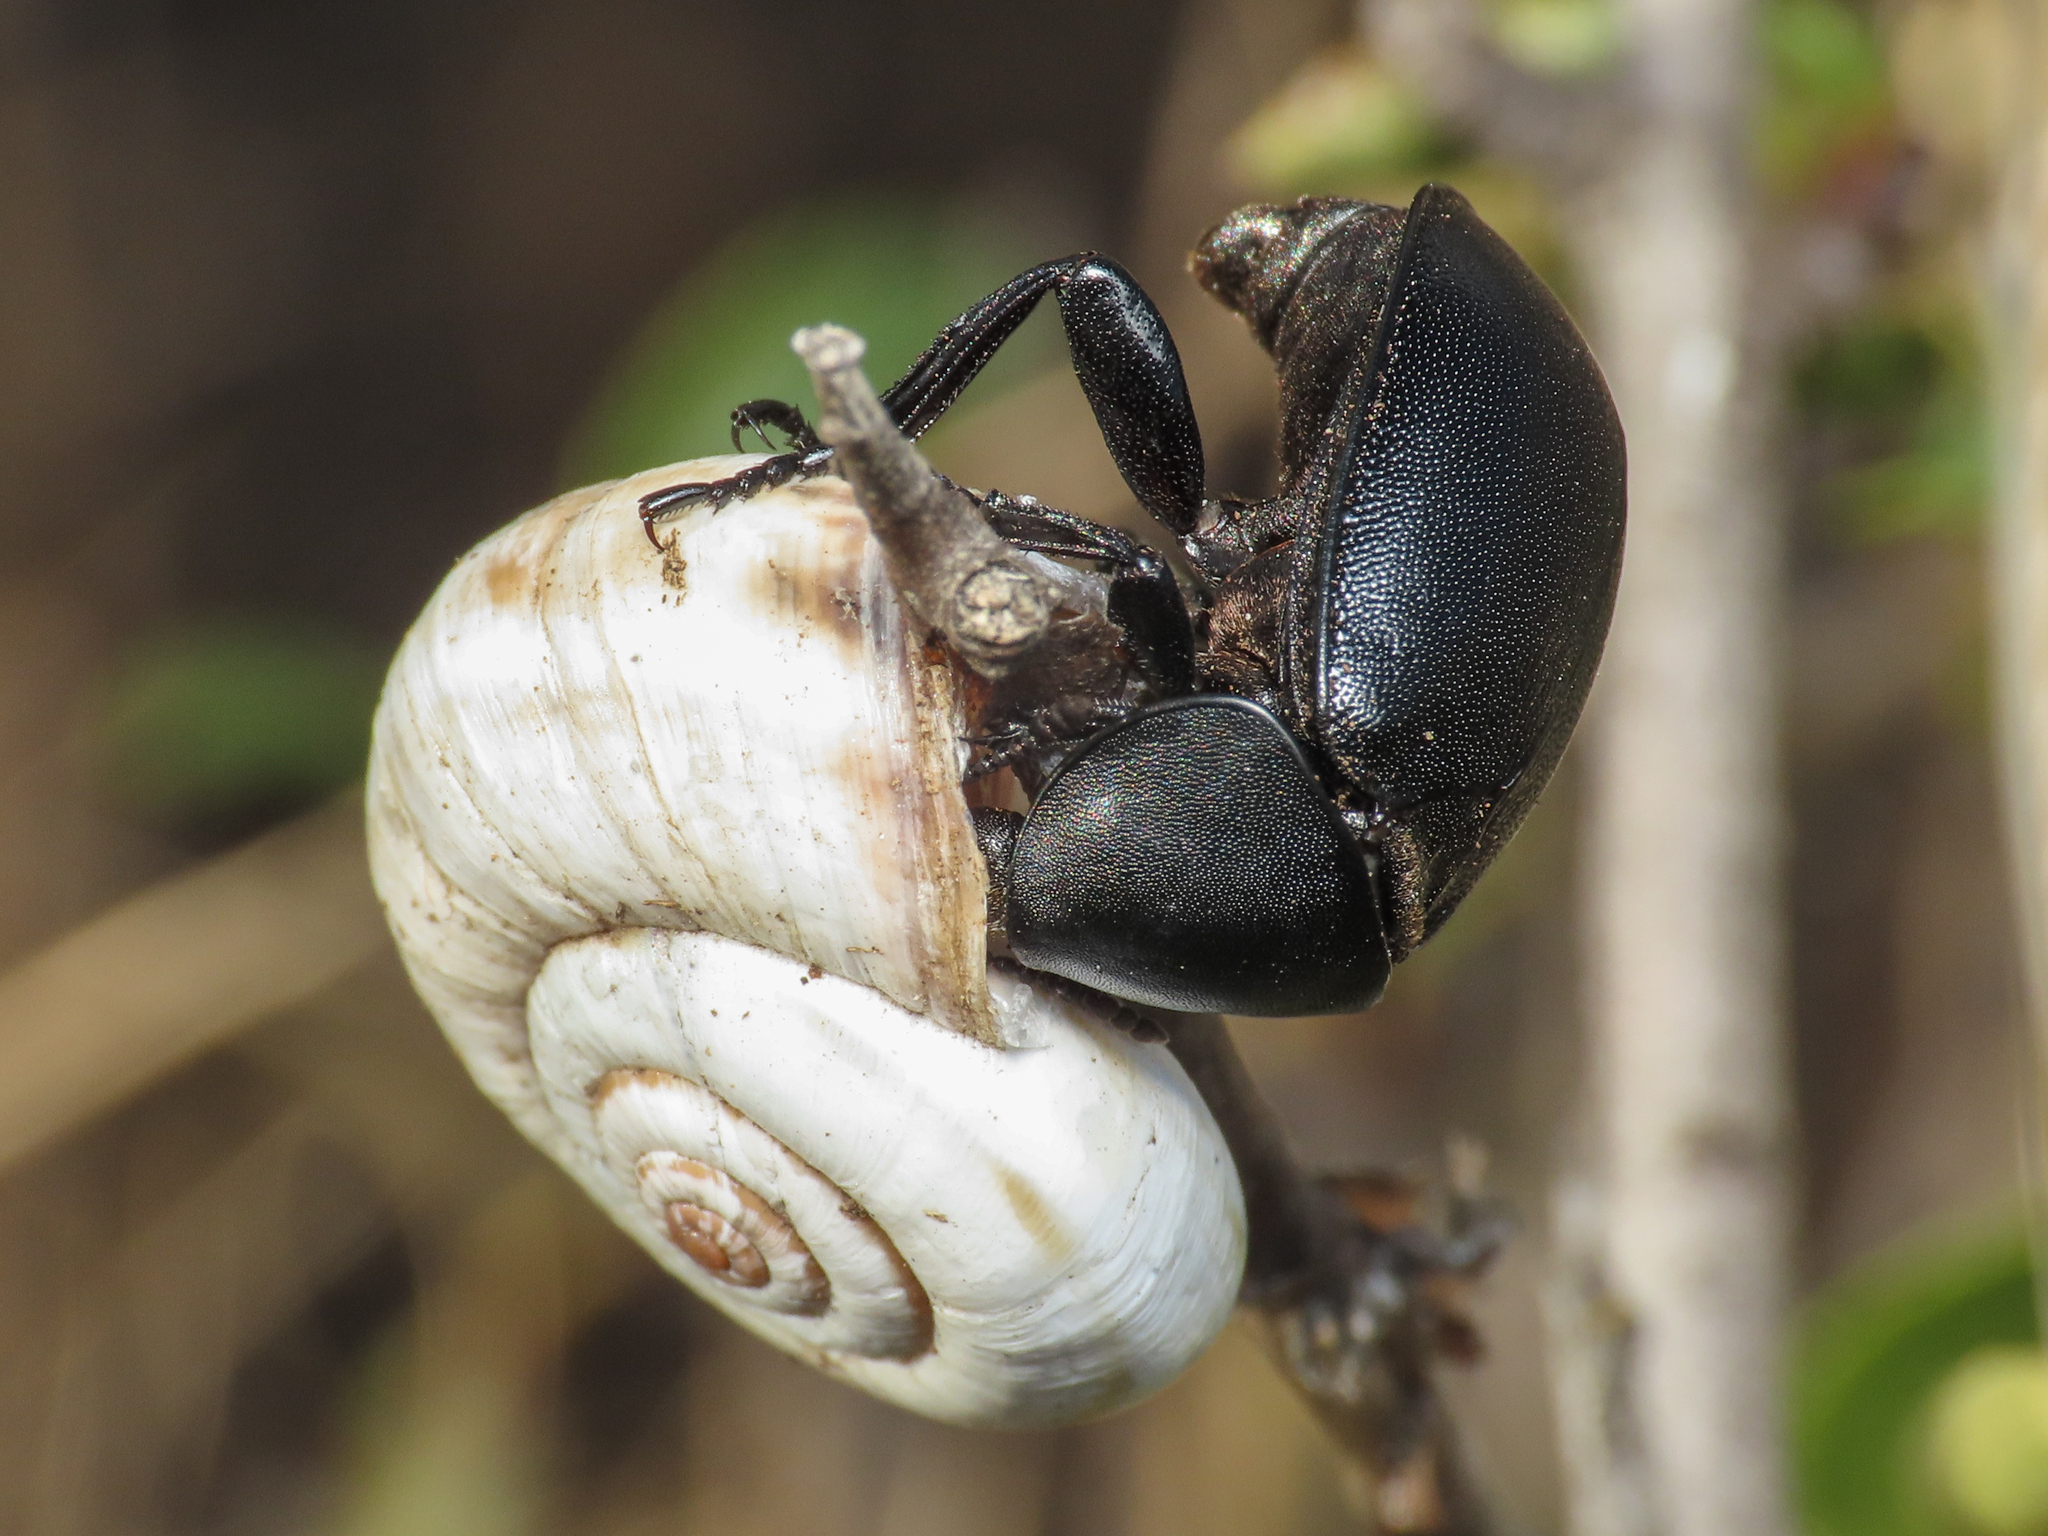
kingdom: Animalia
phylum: Arthropoda
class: Insecta
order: Coleoptera
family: Staphylinidae
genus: Silpha
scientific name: Silpha laevigata
